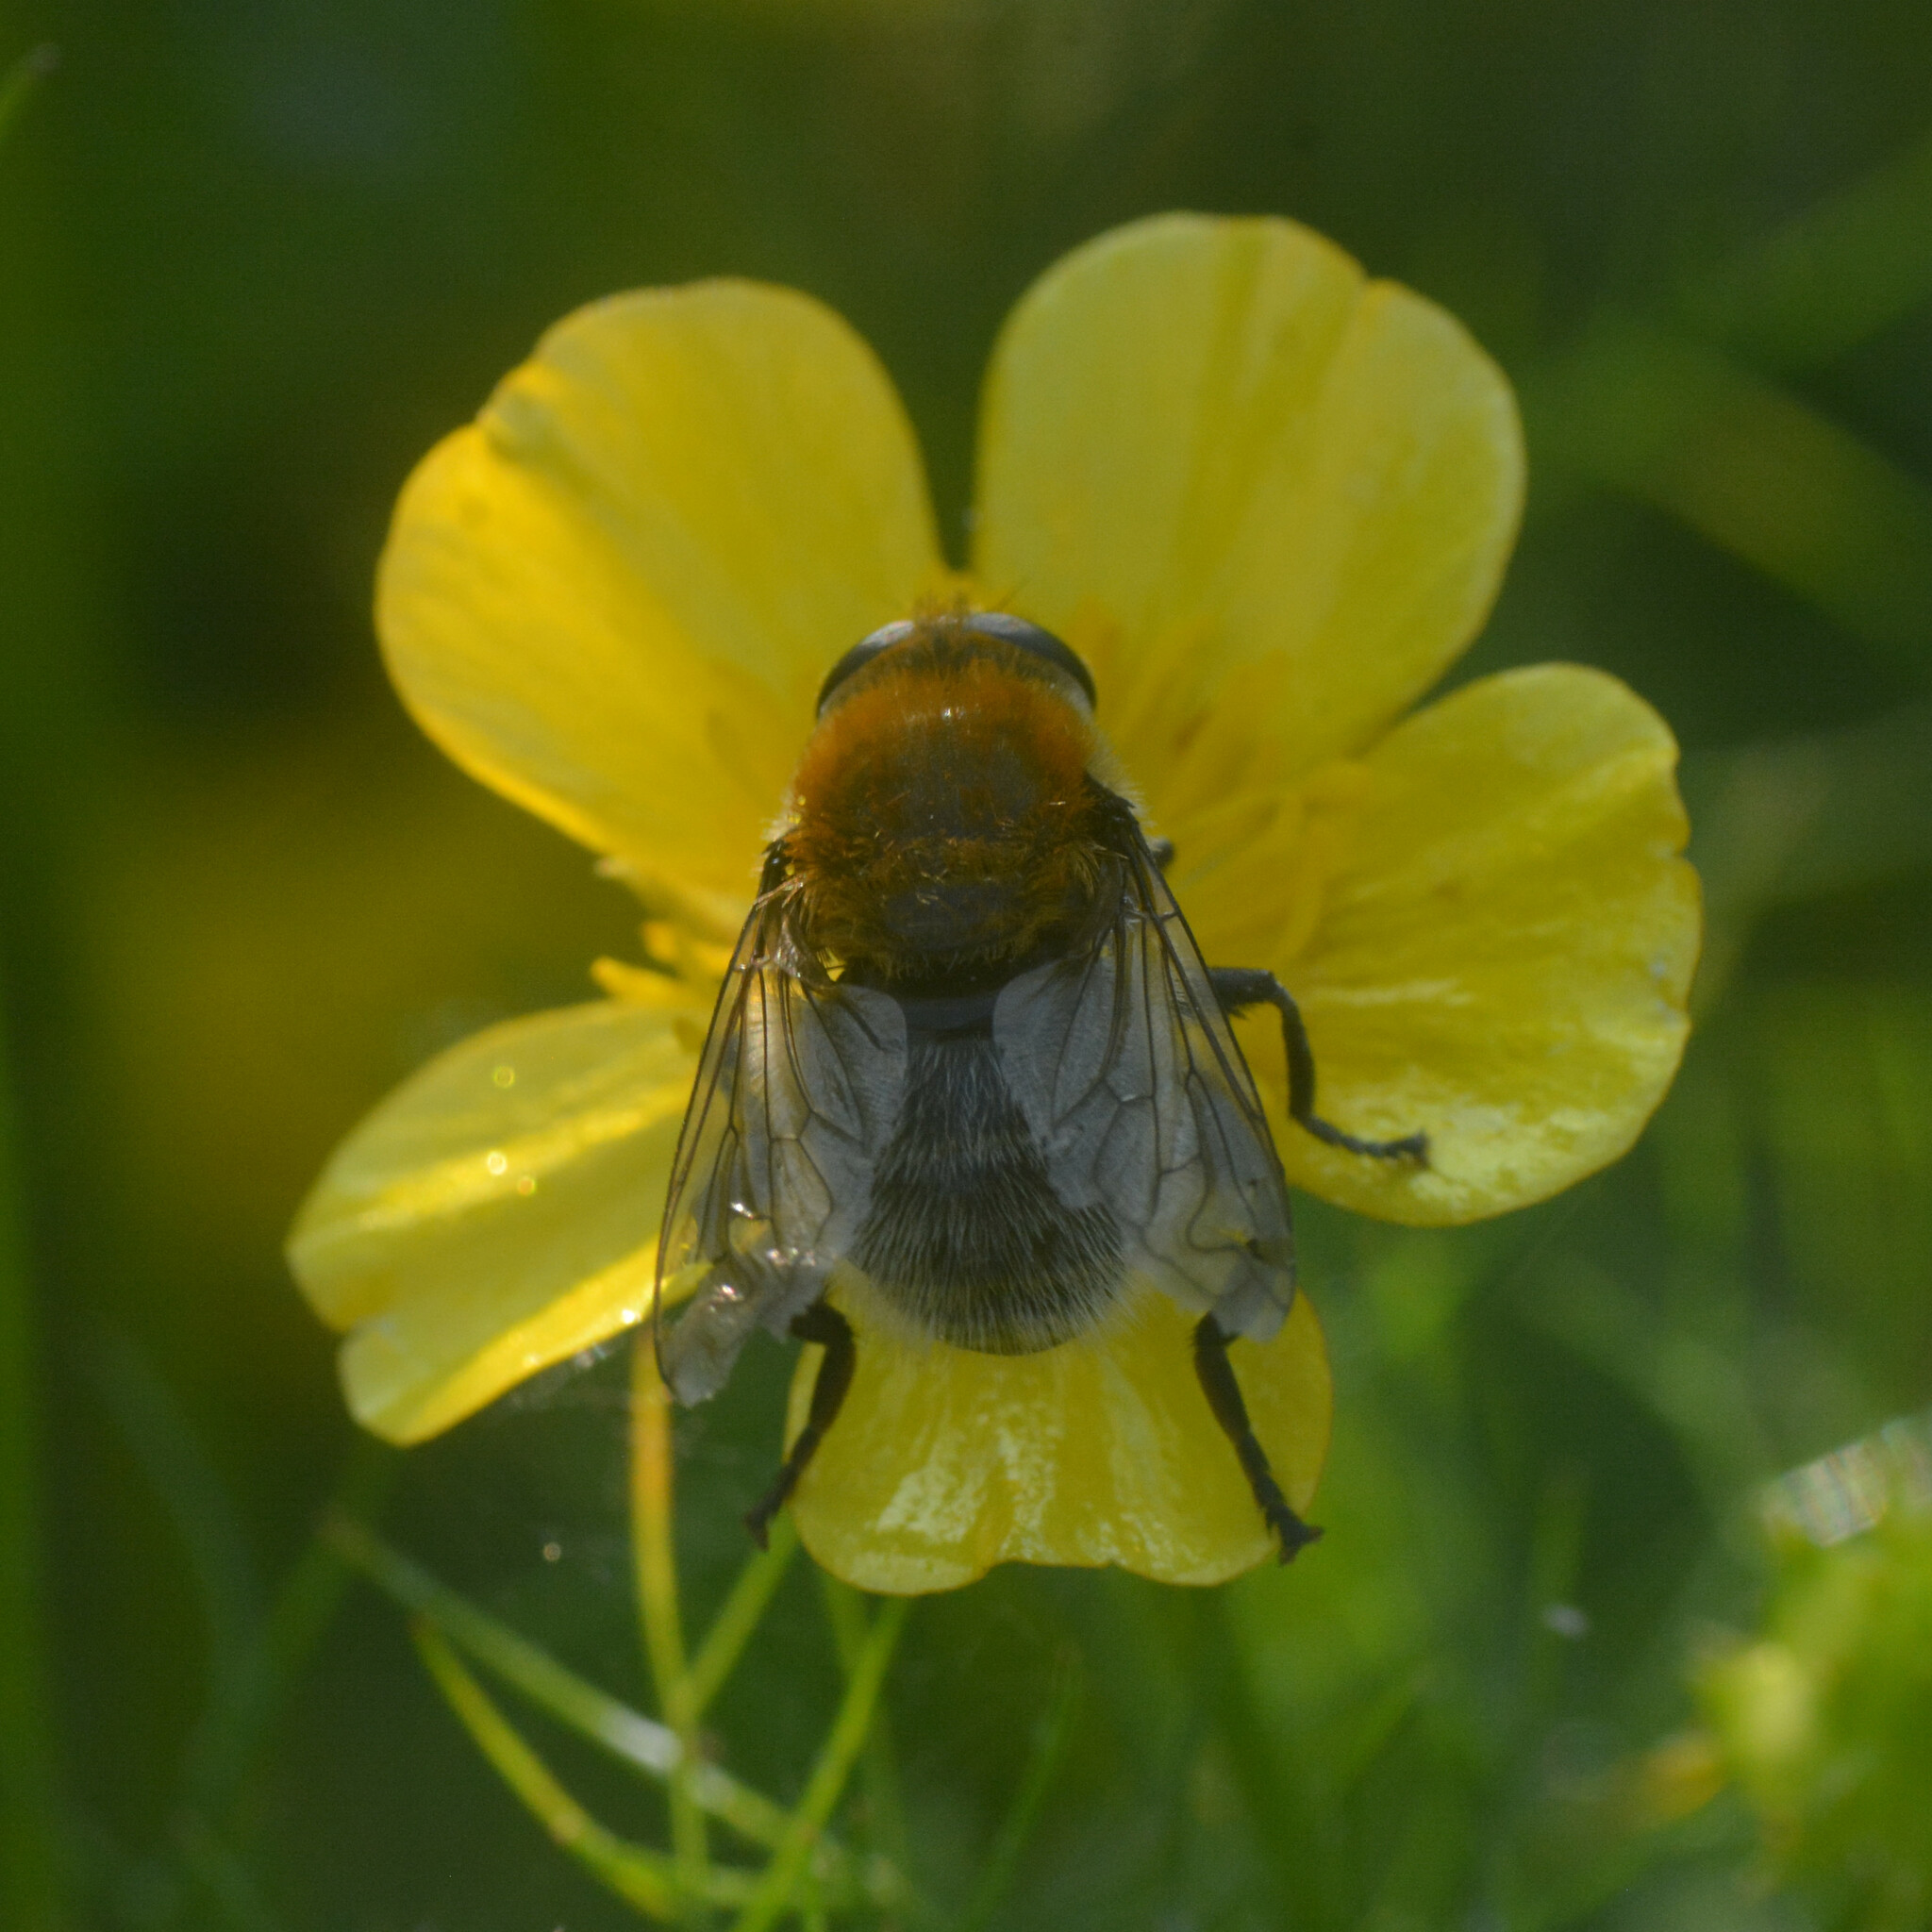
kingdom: Animalia
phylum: Arthropoda
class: Insecta
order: Diptera
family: Syrphidae
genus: Merodon
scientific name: Merodon equestris
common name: Greater bulb-fly
